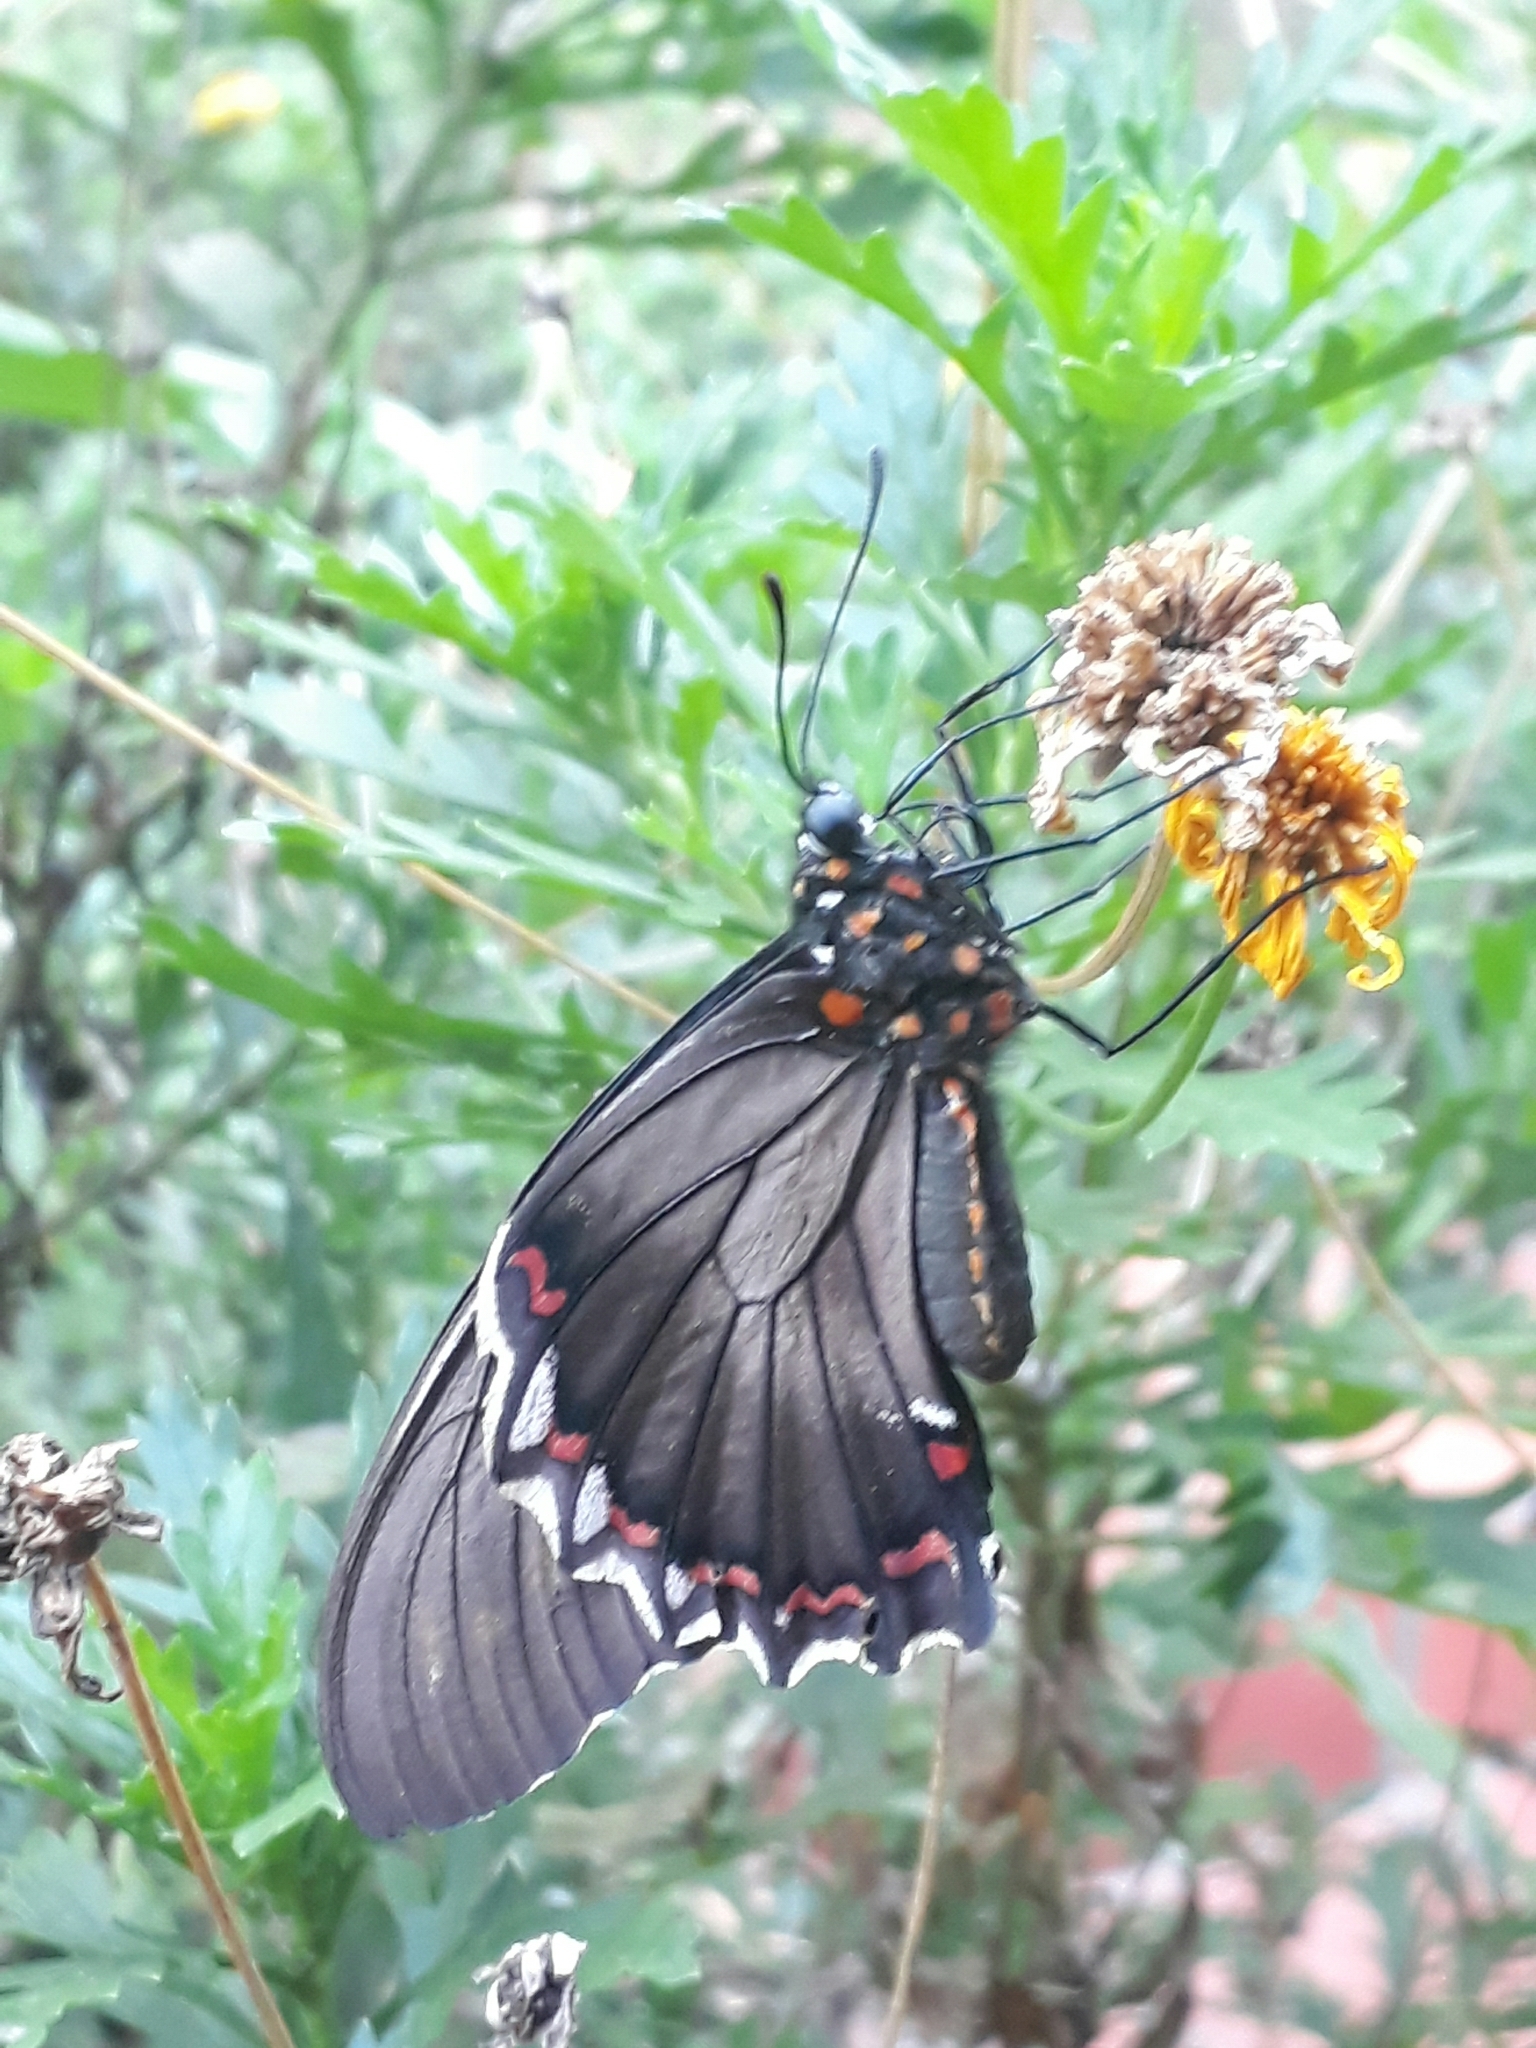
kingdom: Animalia
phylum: Arthropoda
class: Insecta
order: Lepidoptera
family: Papilionidae
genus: Battus
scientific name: Battus polydamas
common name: Polydamas swallowtail
